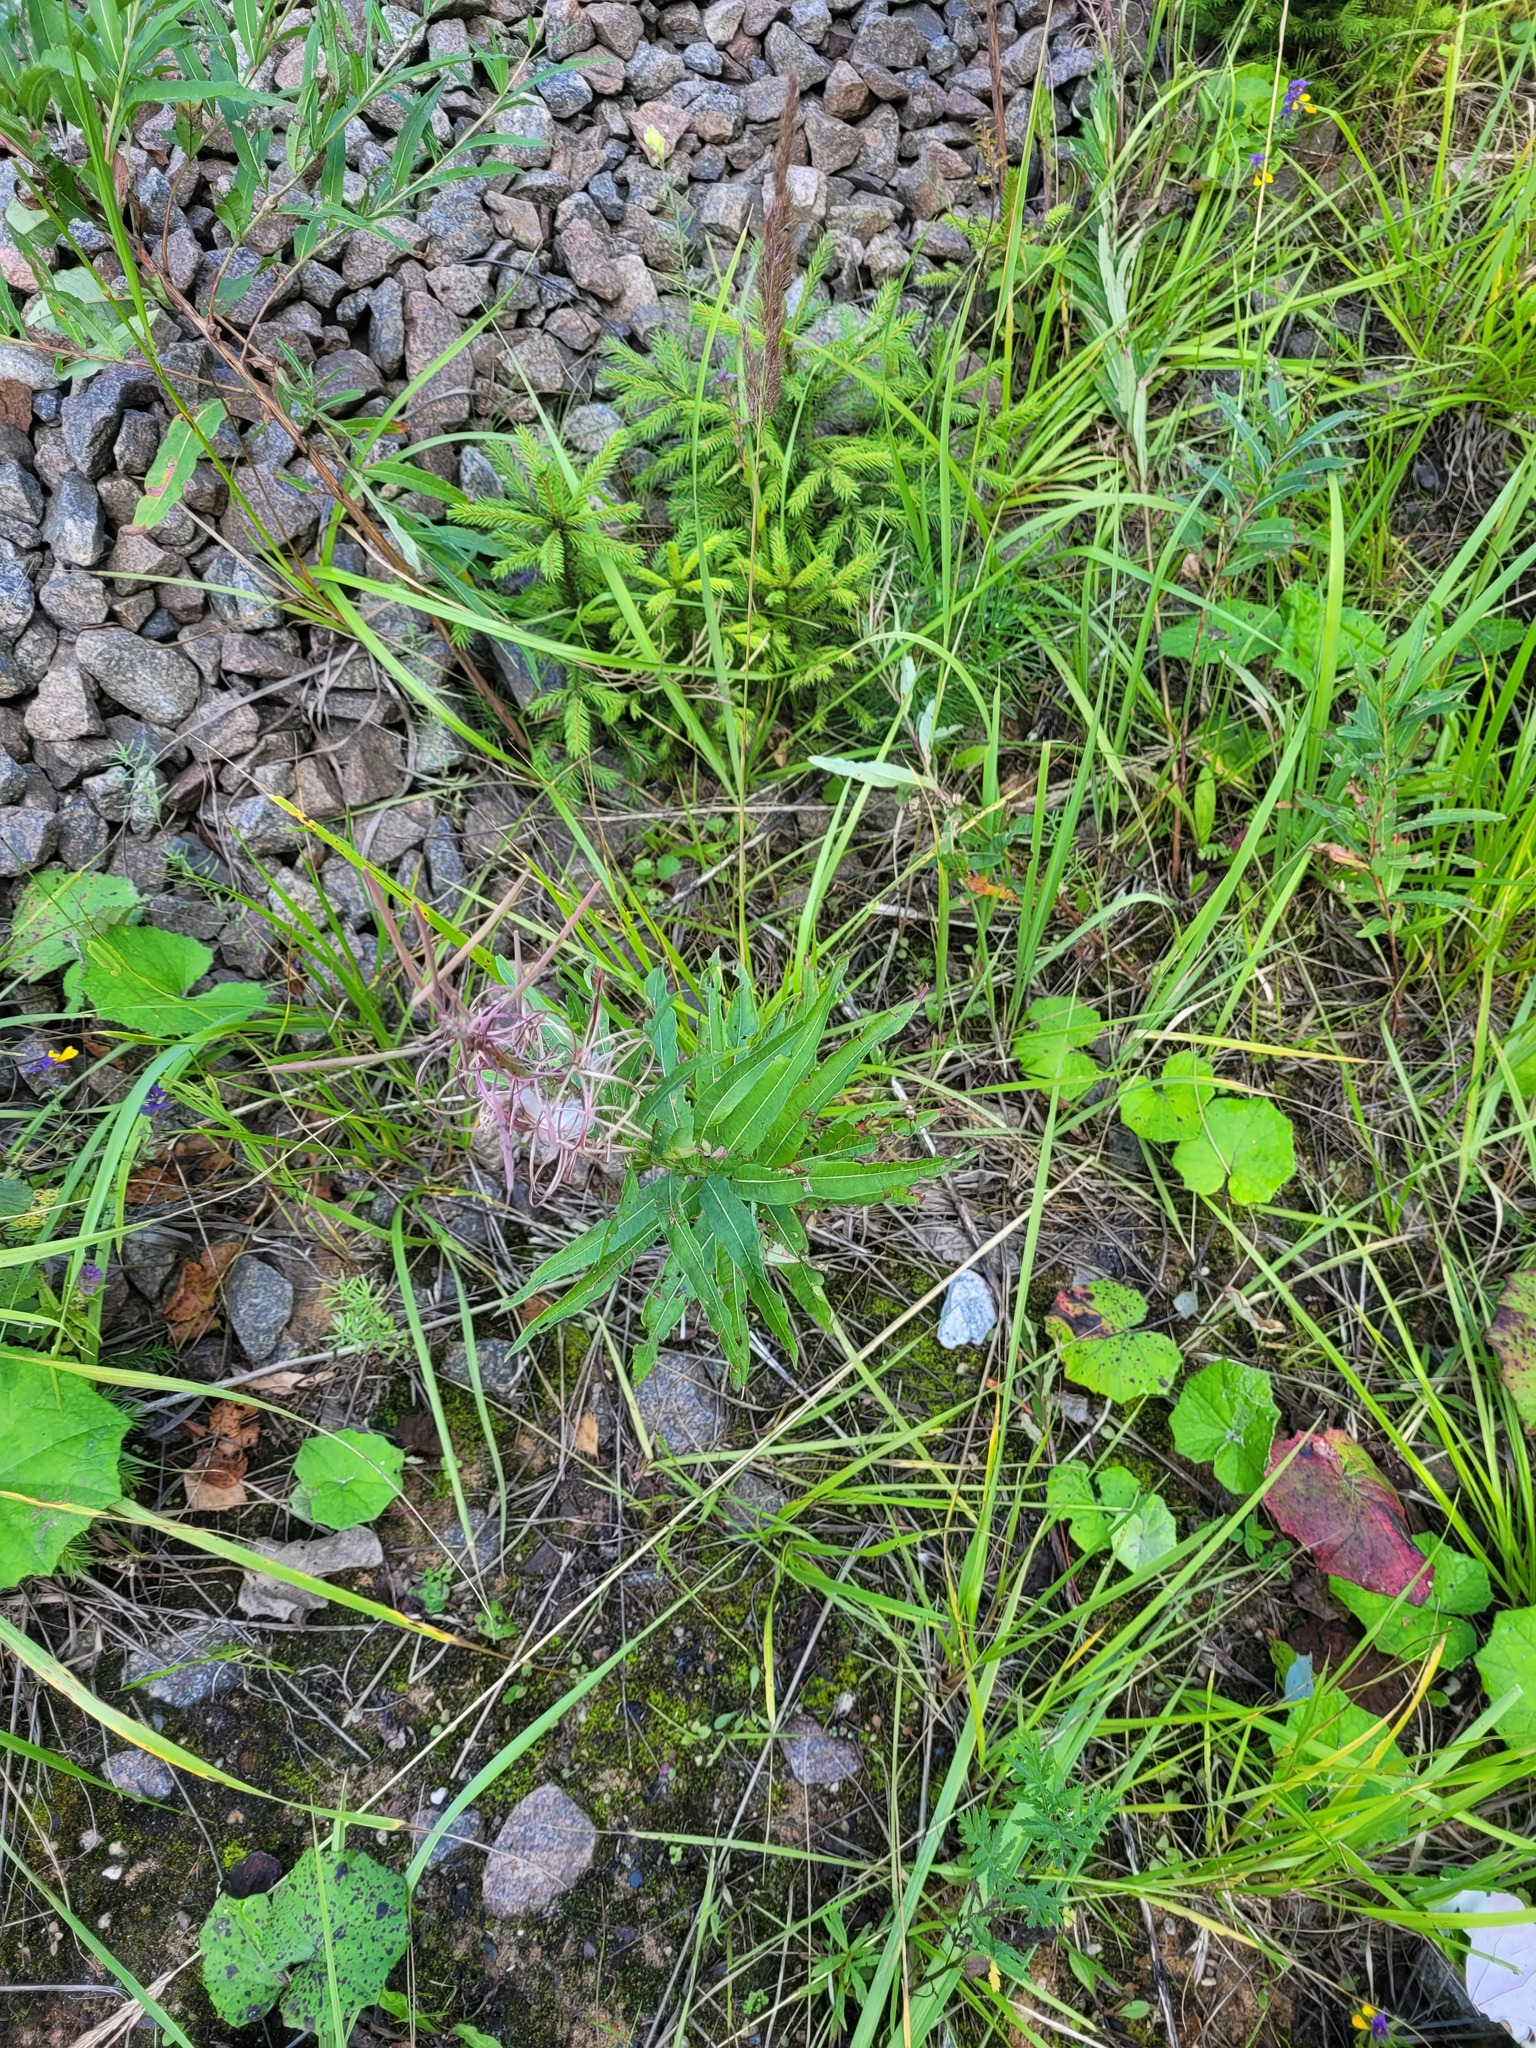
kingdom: Plantae
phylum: Tracheophyta
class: Magnoliopsida
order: Myrtales
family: Onagraceae
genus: Chamaenerion
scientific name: Chamaenerion angustifolium
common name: Fireweed
